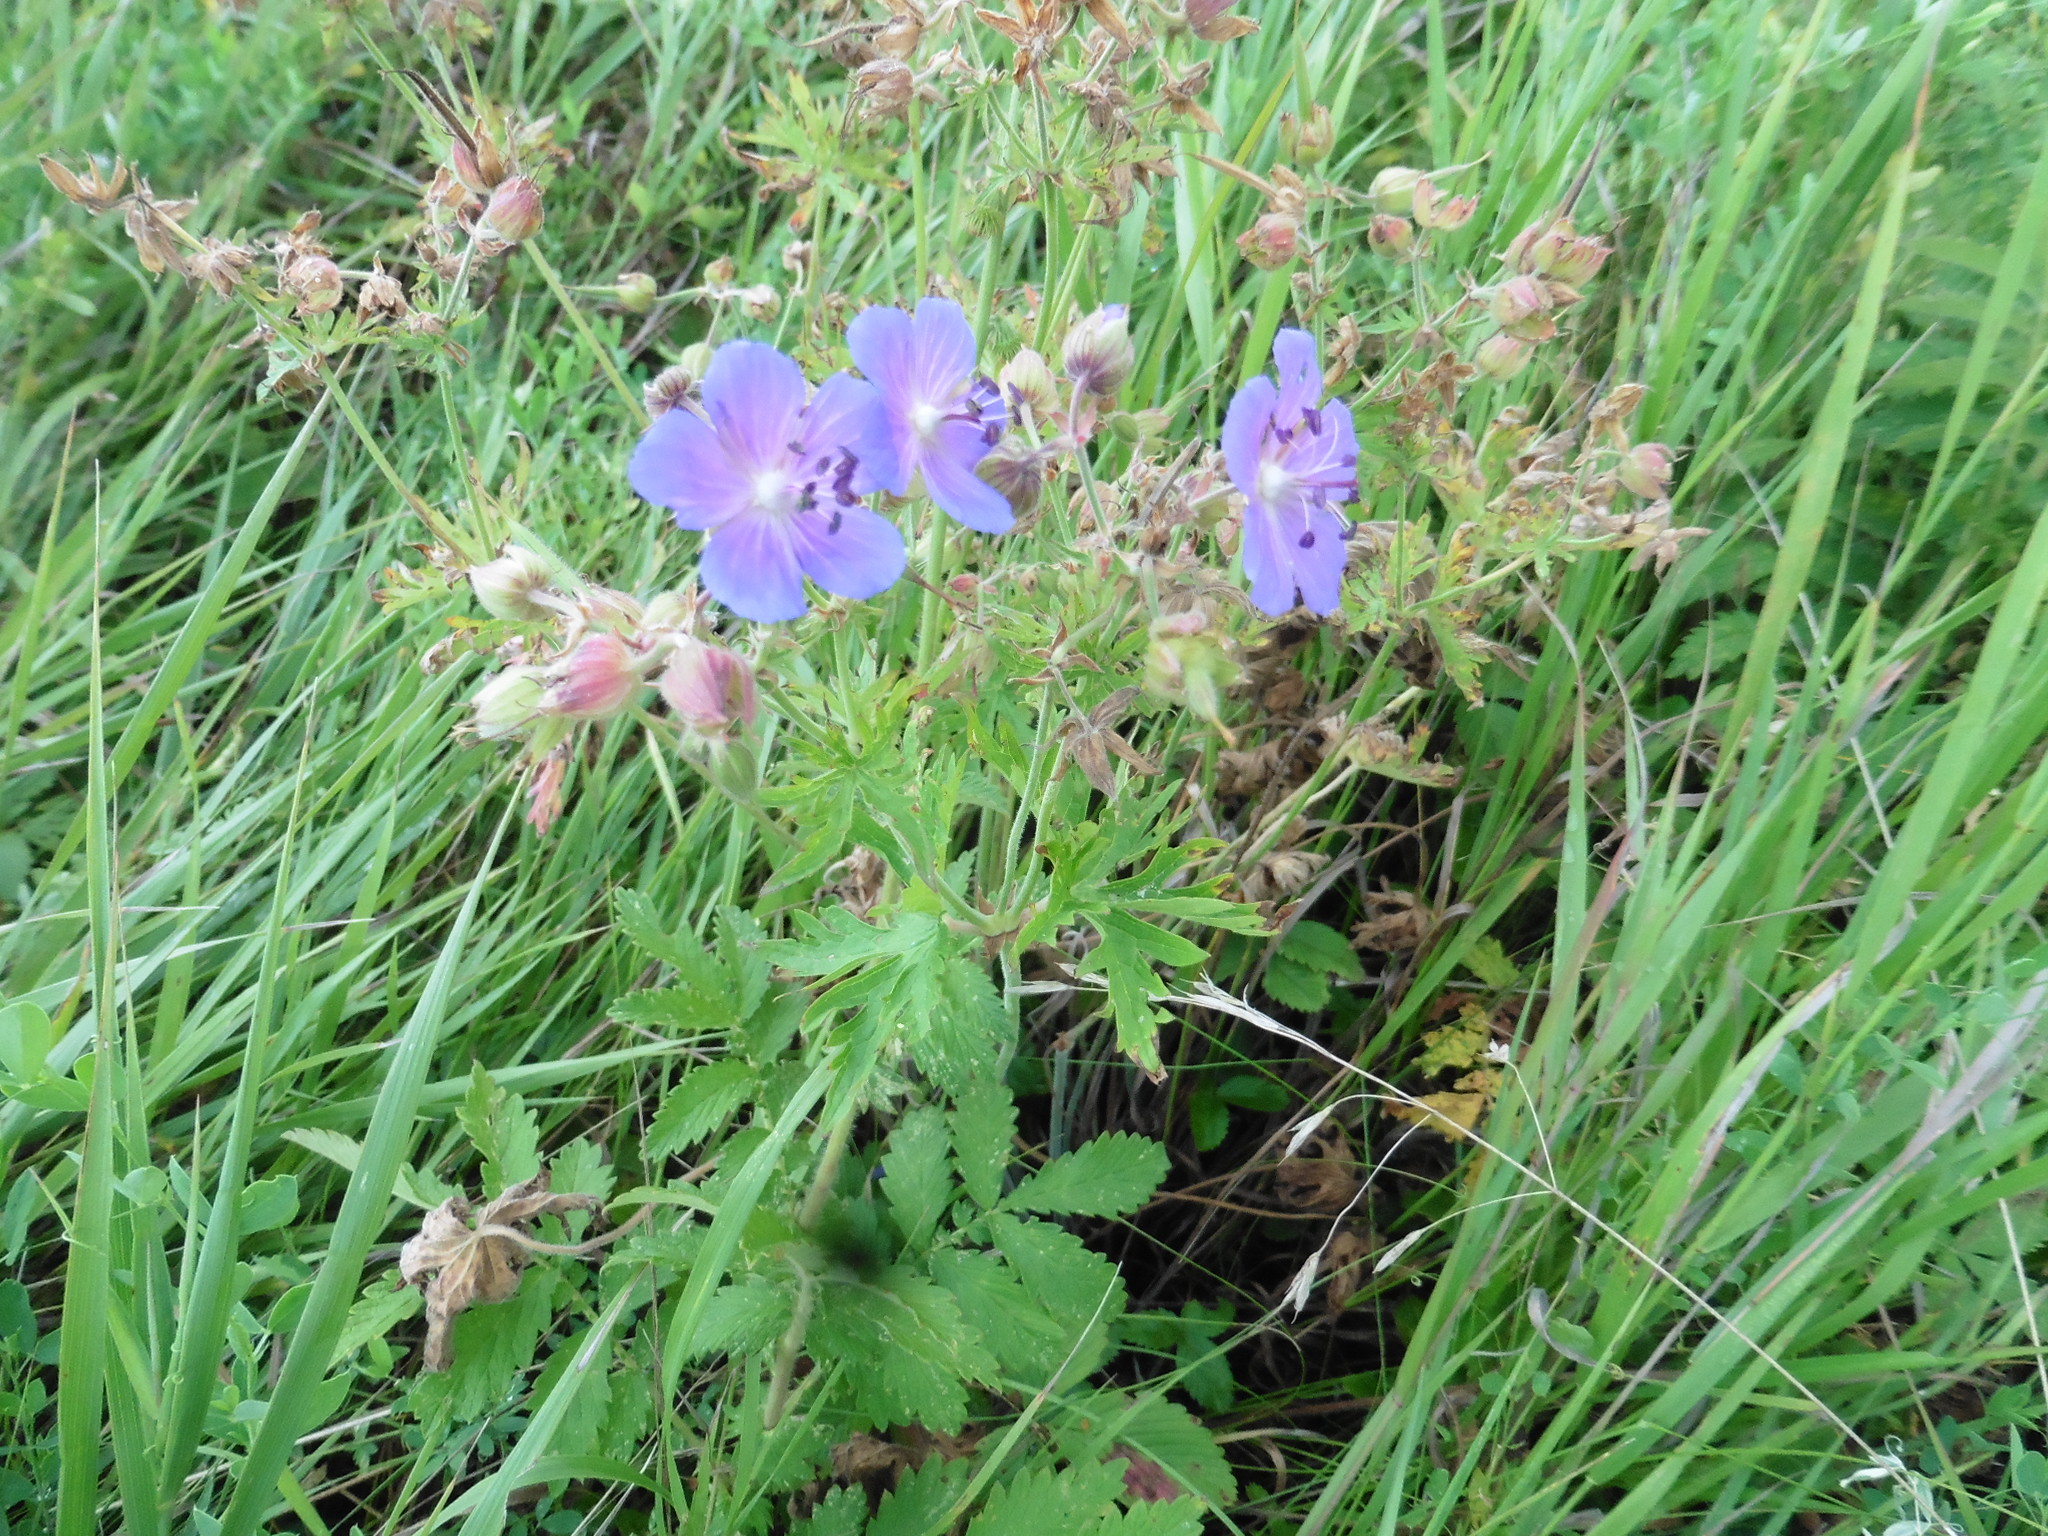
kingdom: Plantae
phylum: Tracheophyta
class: Magnoliopsida
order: Geraniales
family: Geraniaceae
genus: Geranium
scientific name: Geranium pratense
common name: Meadow crane's-bill
